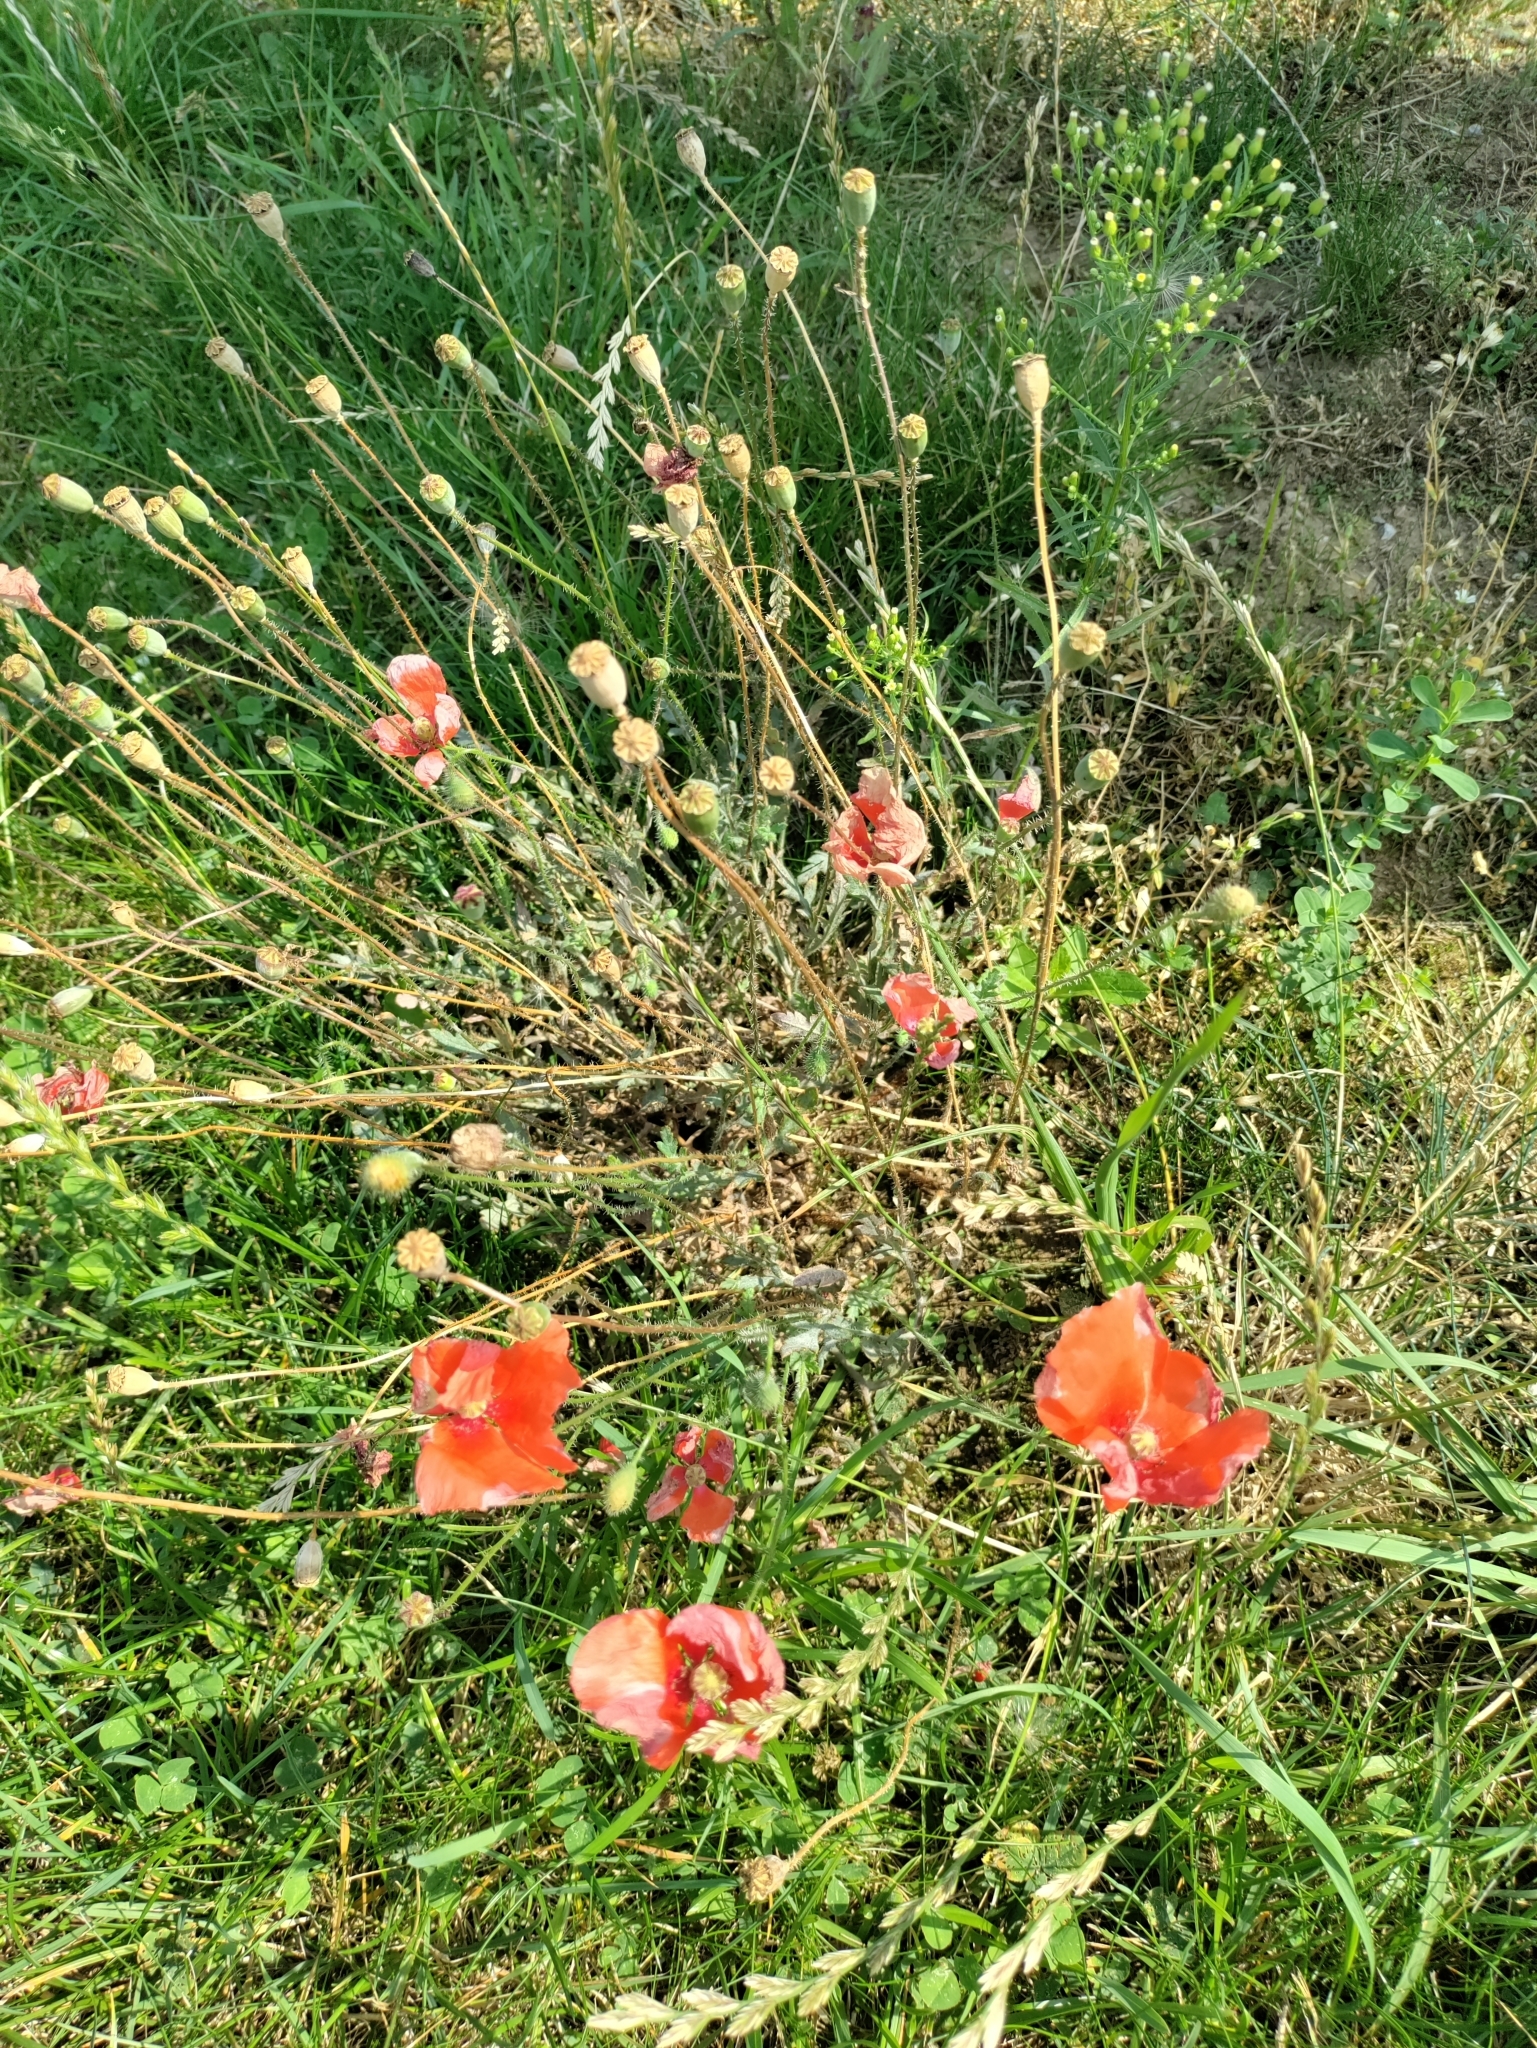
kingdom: Plantae
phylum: Tracheophyta
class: Magnoliopsida
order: Ranunculales
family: Papaveraceae
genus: Papaver
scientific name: Papaver rhoeas
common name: Corn poppy
